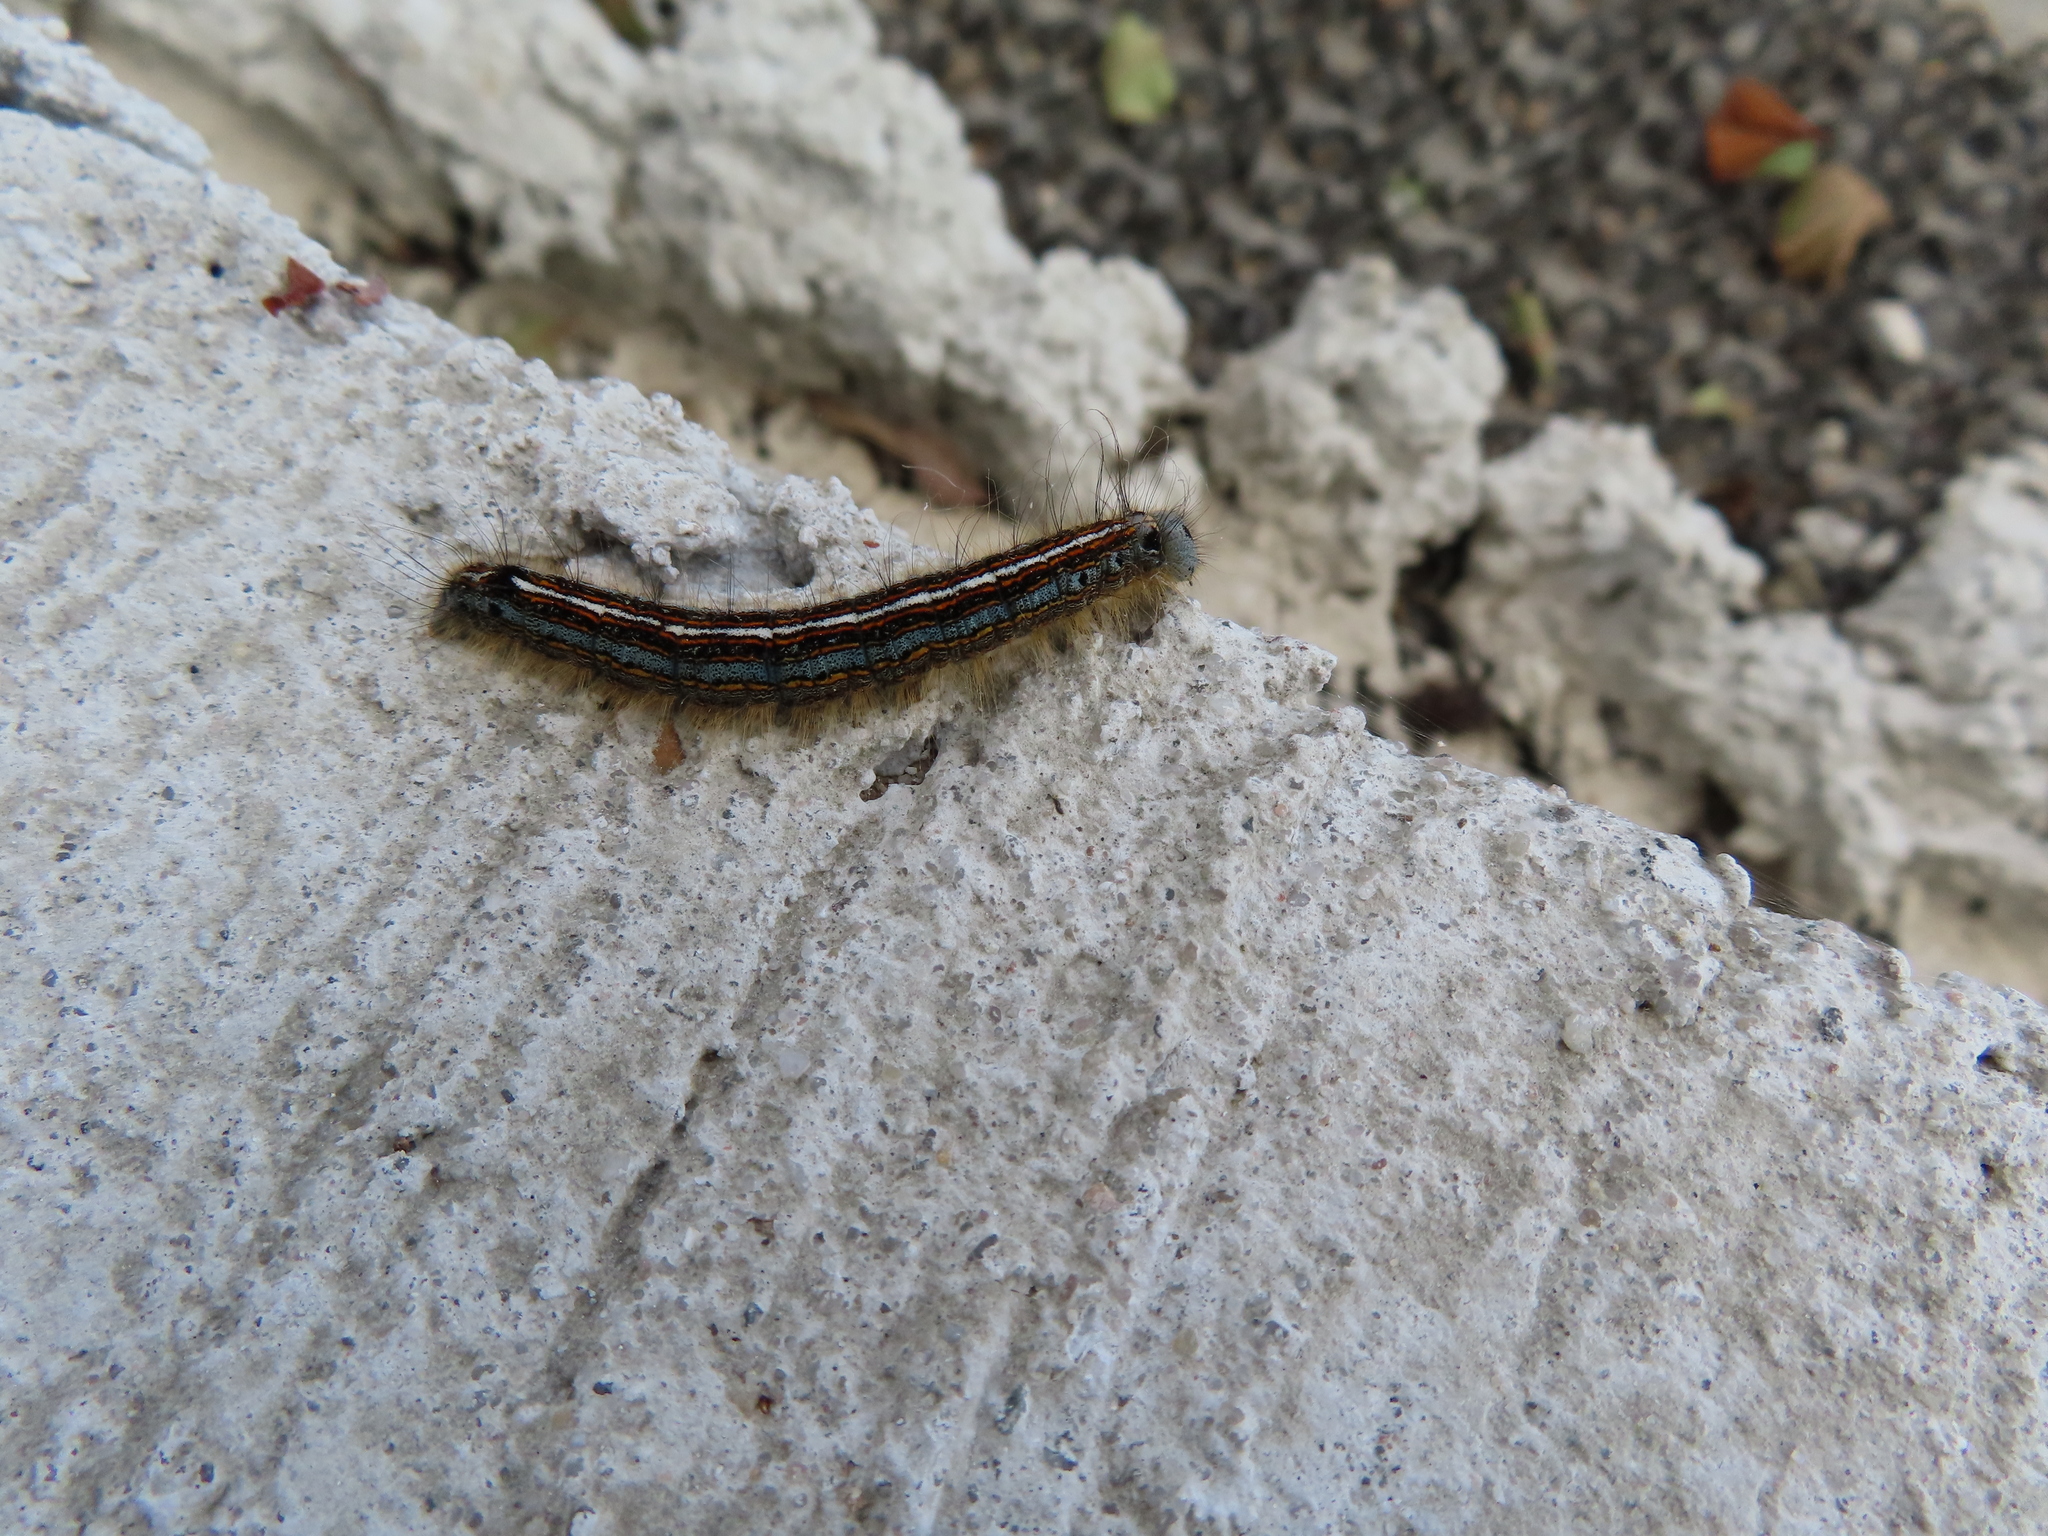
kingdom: Animalia
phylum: Arthropoda
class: Insecta
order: Lepidoptera
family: Lasiocampidae
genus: Malacosoma
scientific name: Malacosoma neustria
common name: The lackey
